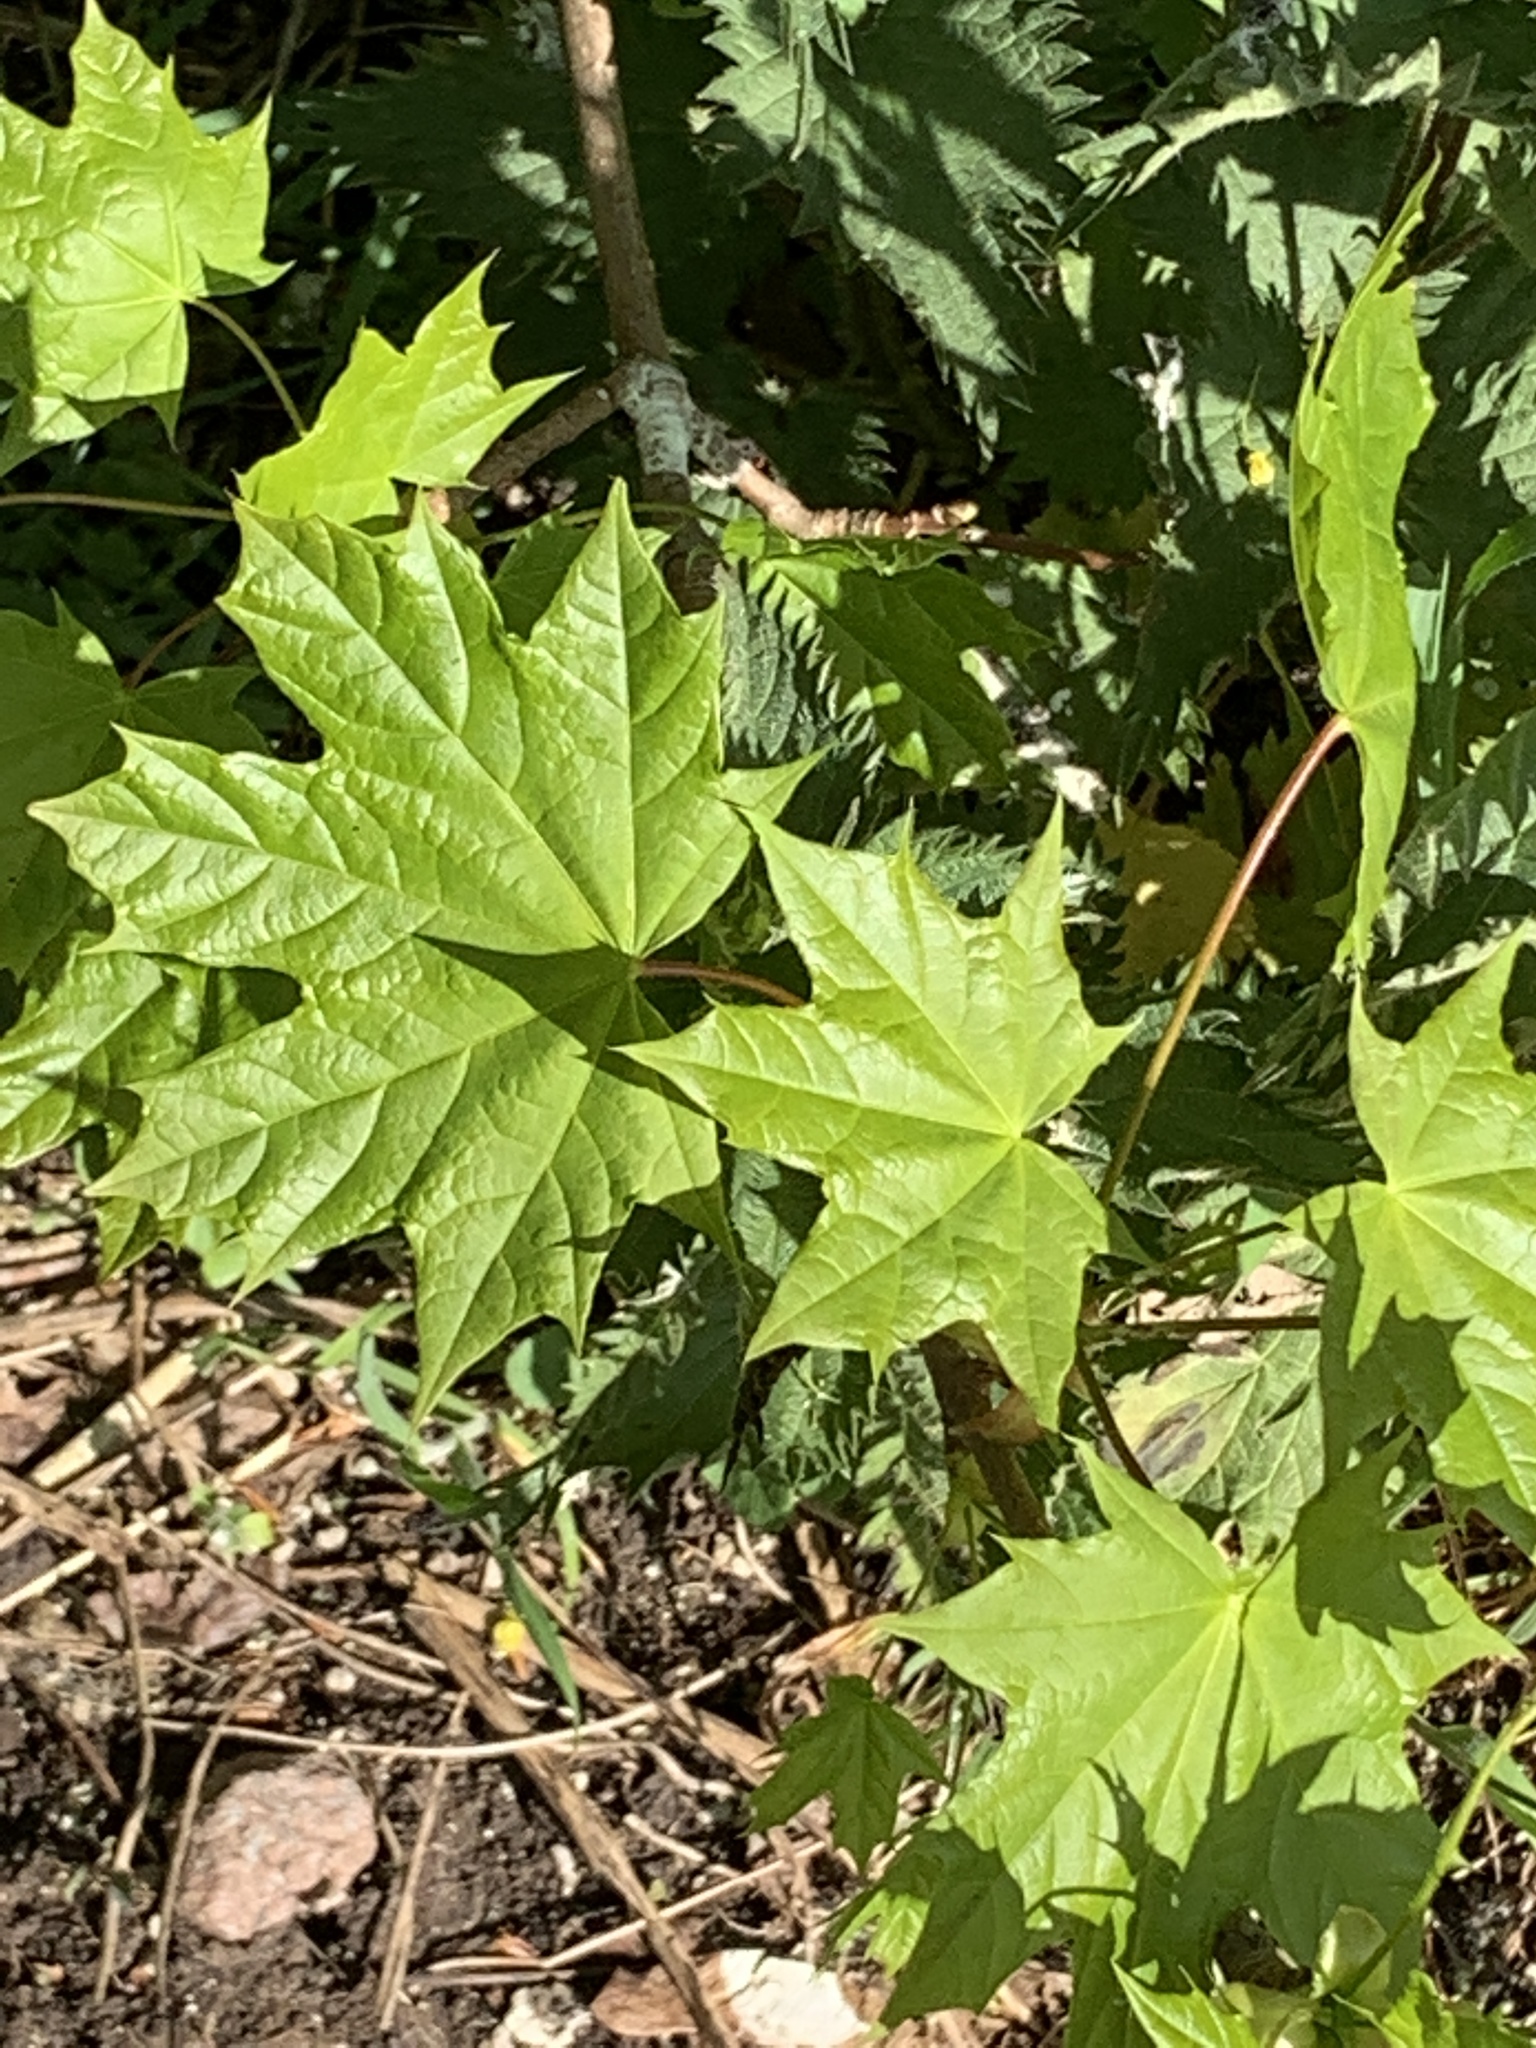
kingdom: Plantae
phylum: Tracheophyta
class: Magnoliopsida
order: Sapindales
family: Sapindaceae
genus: Acer
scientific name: Acer platanoides
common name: Norway maple
